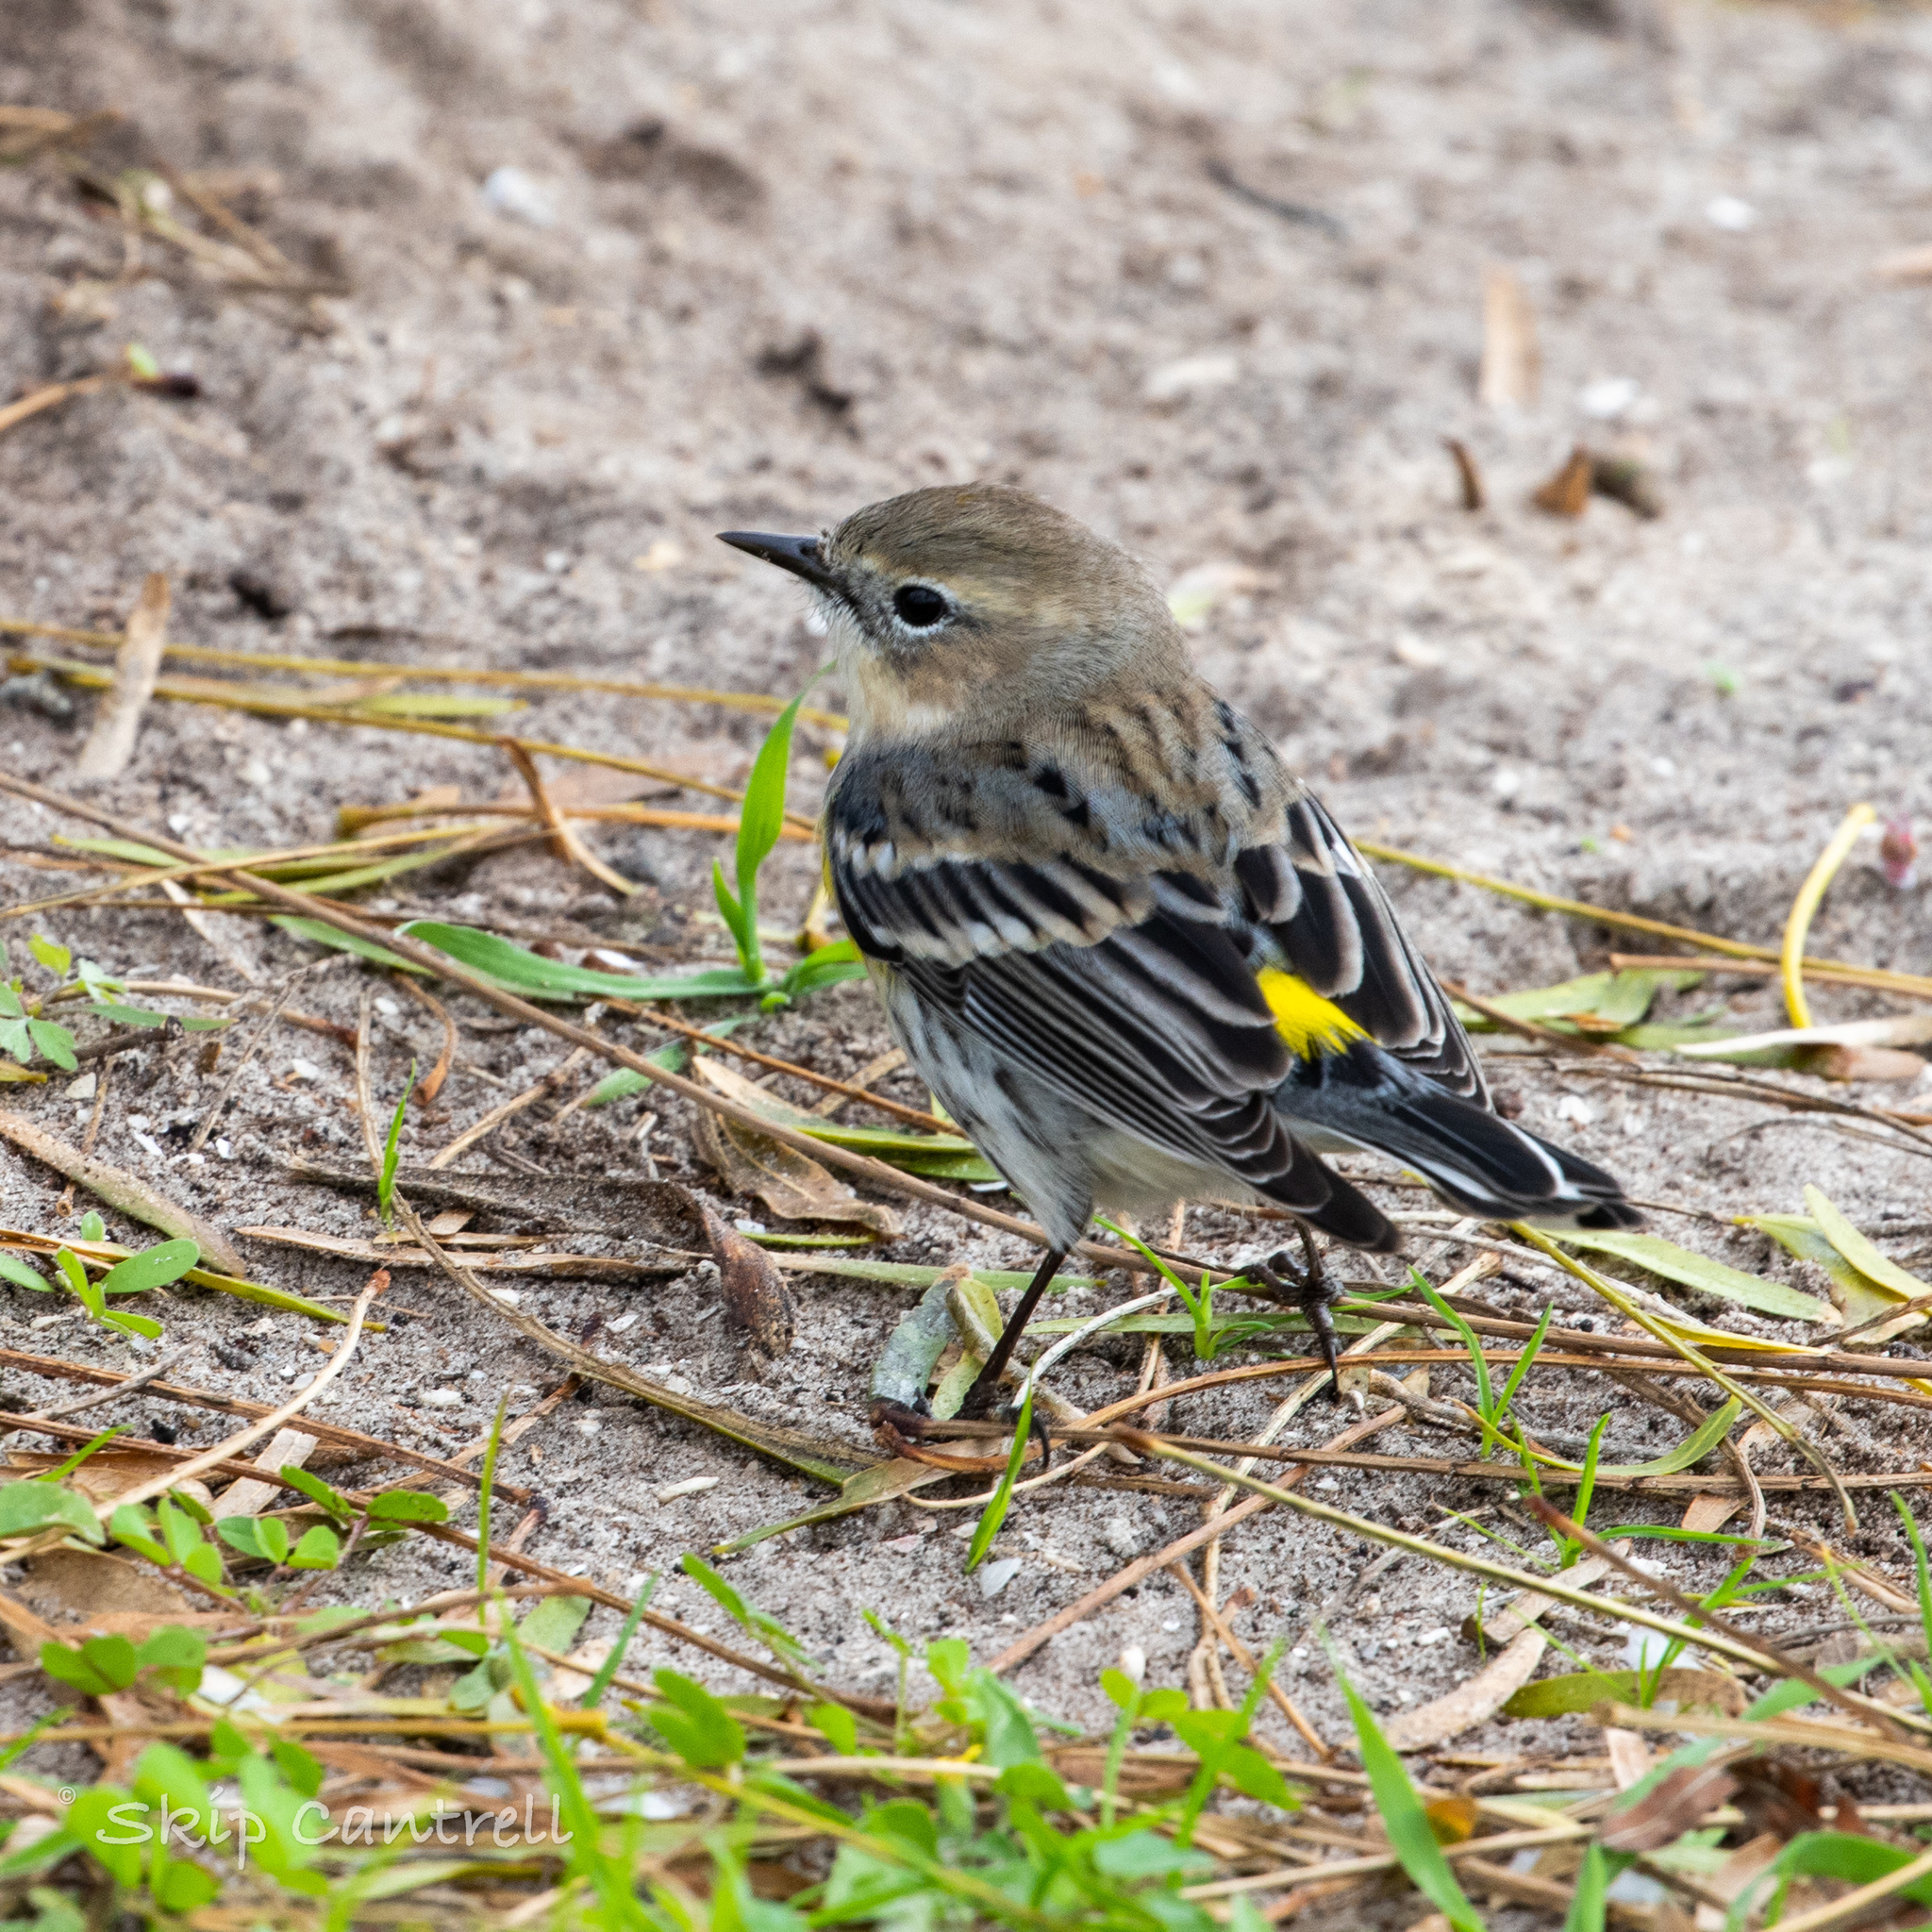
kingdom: Animalia
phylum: Chordata
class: Aves
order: Passeriformes
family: Parulidae
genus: Setophaga
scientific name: Setophaga coronata
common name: Myrtle warbler
